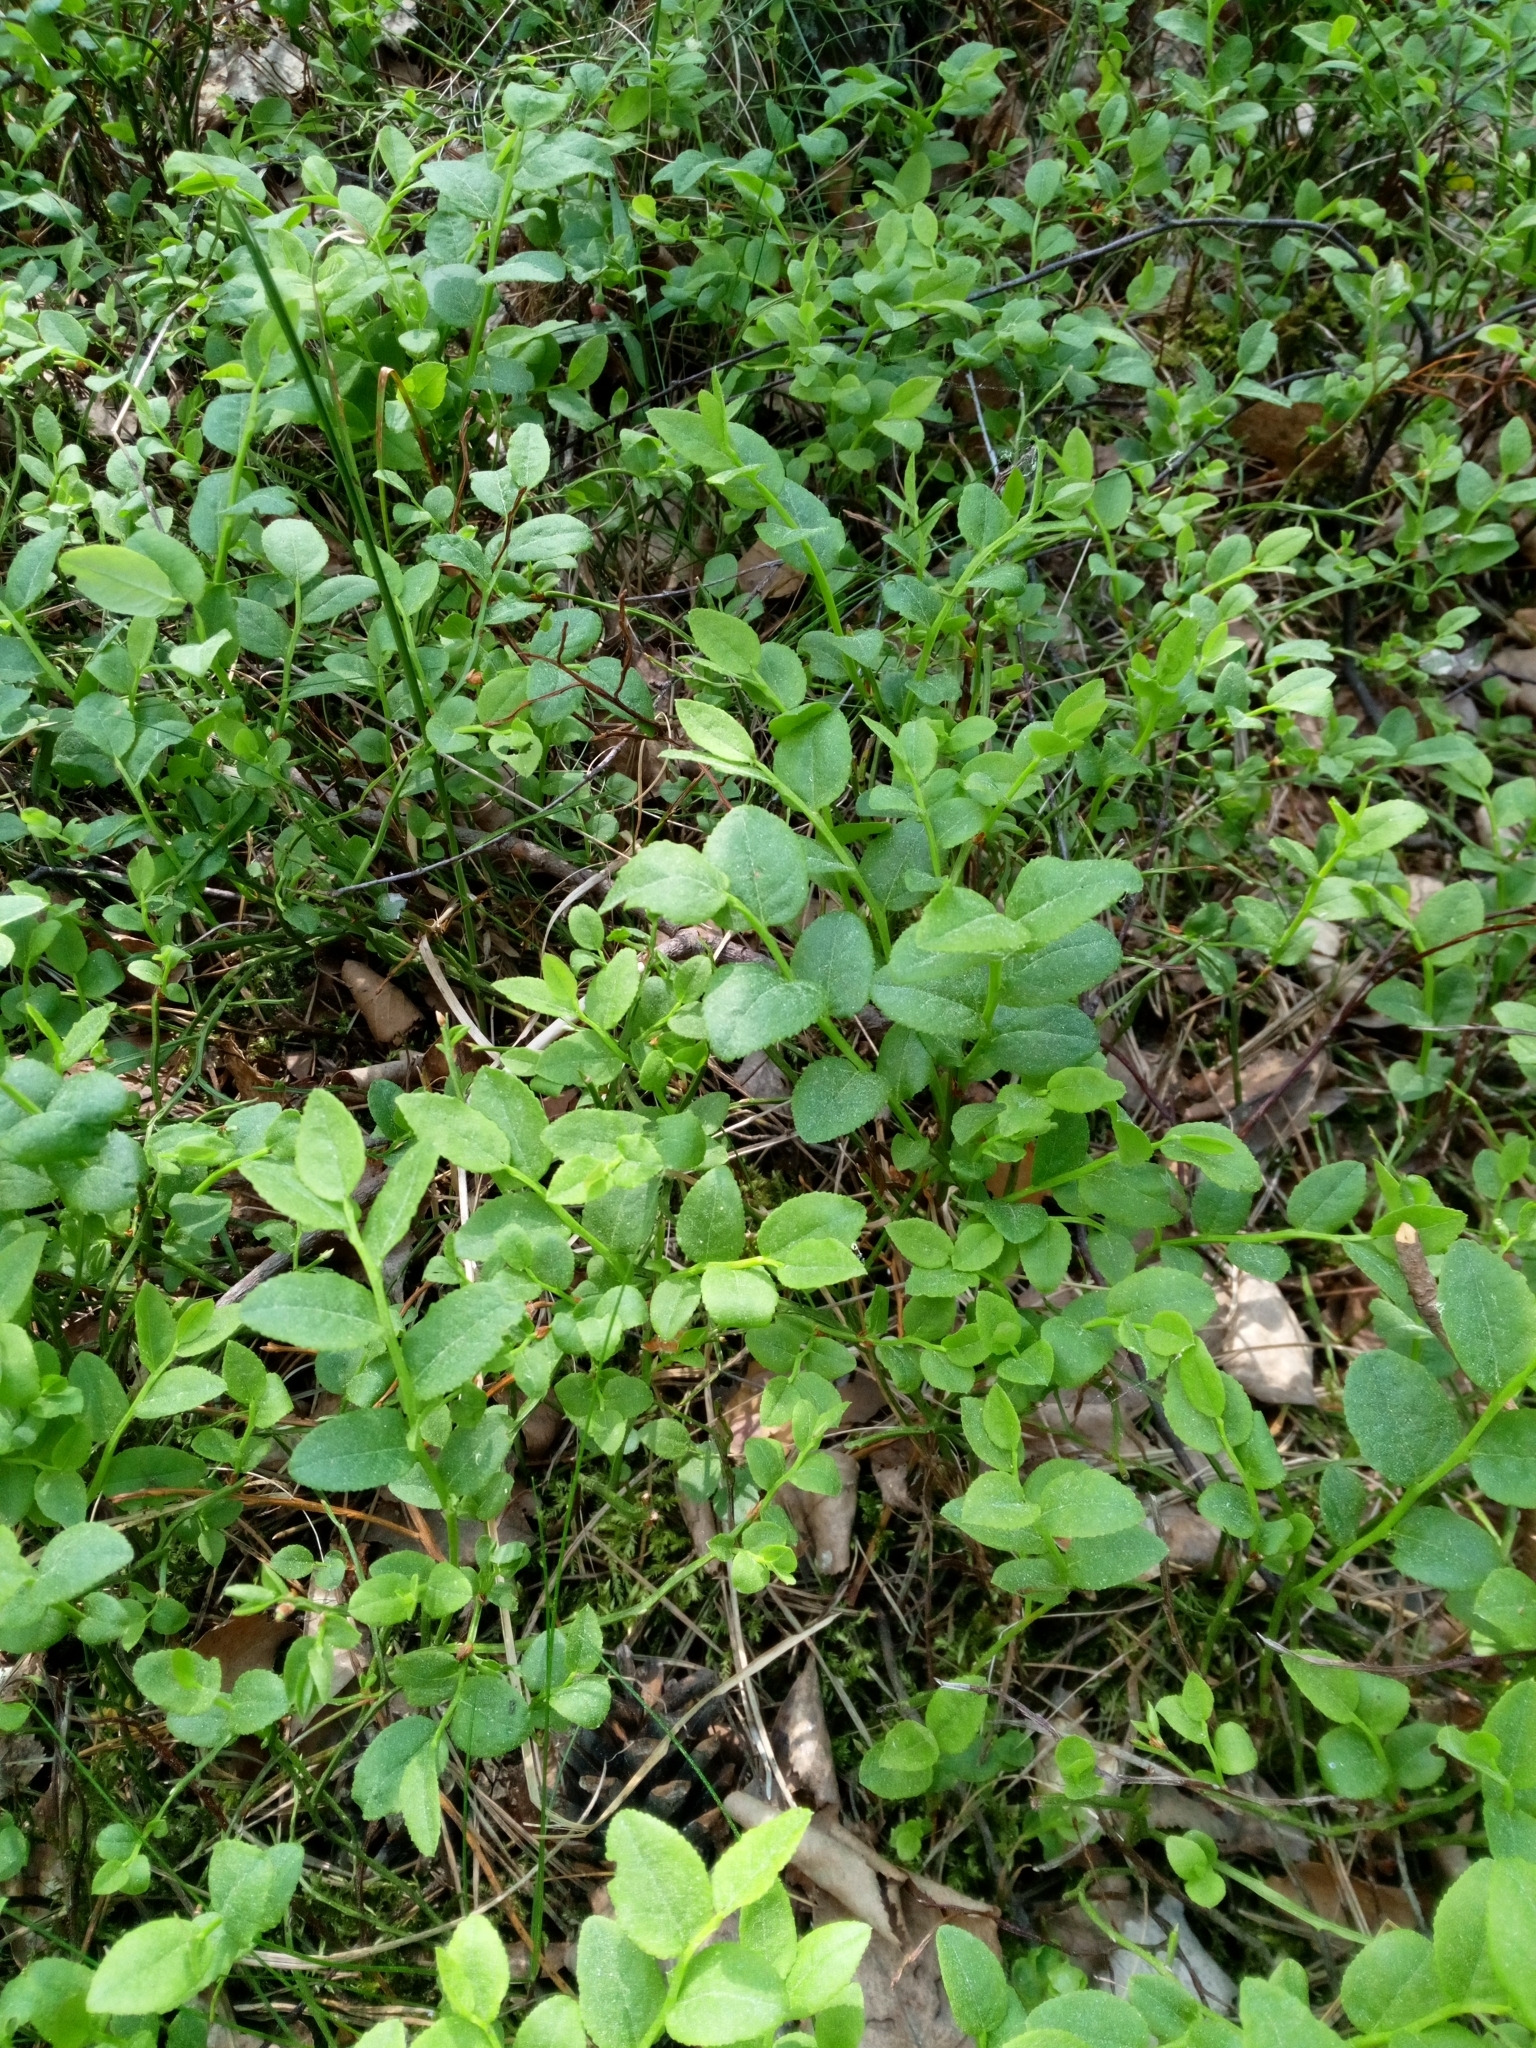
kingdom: Plantae
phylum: Tracheophyta
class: Magnoliopsida
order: Ericales
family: Ericaceae
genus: Vaccinium
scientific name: Vaccinium myrtillus
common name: Bilberry
